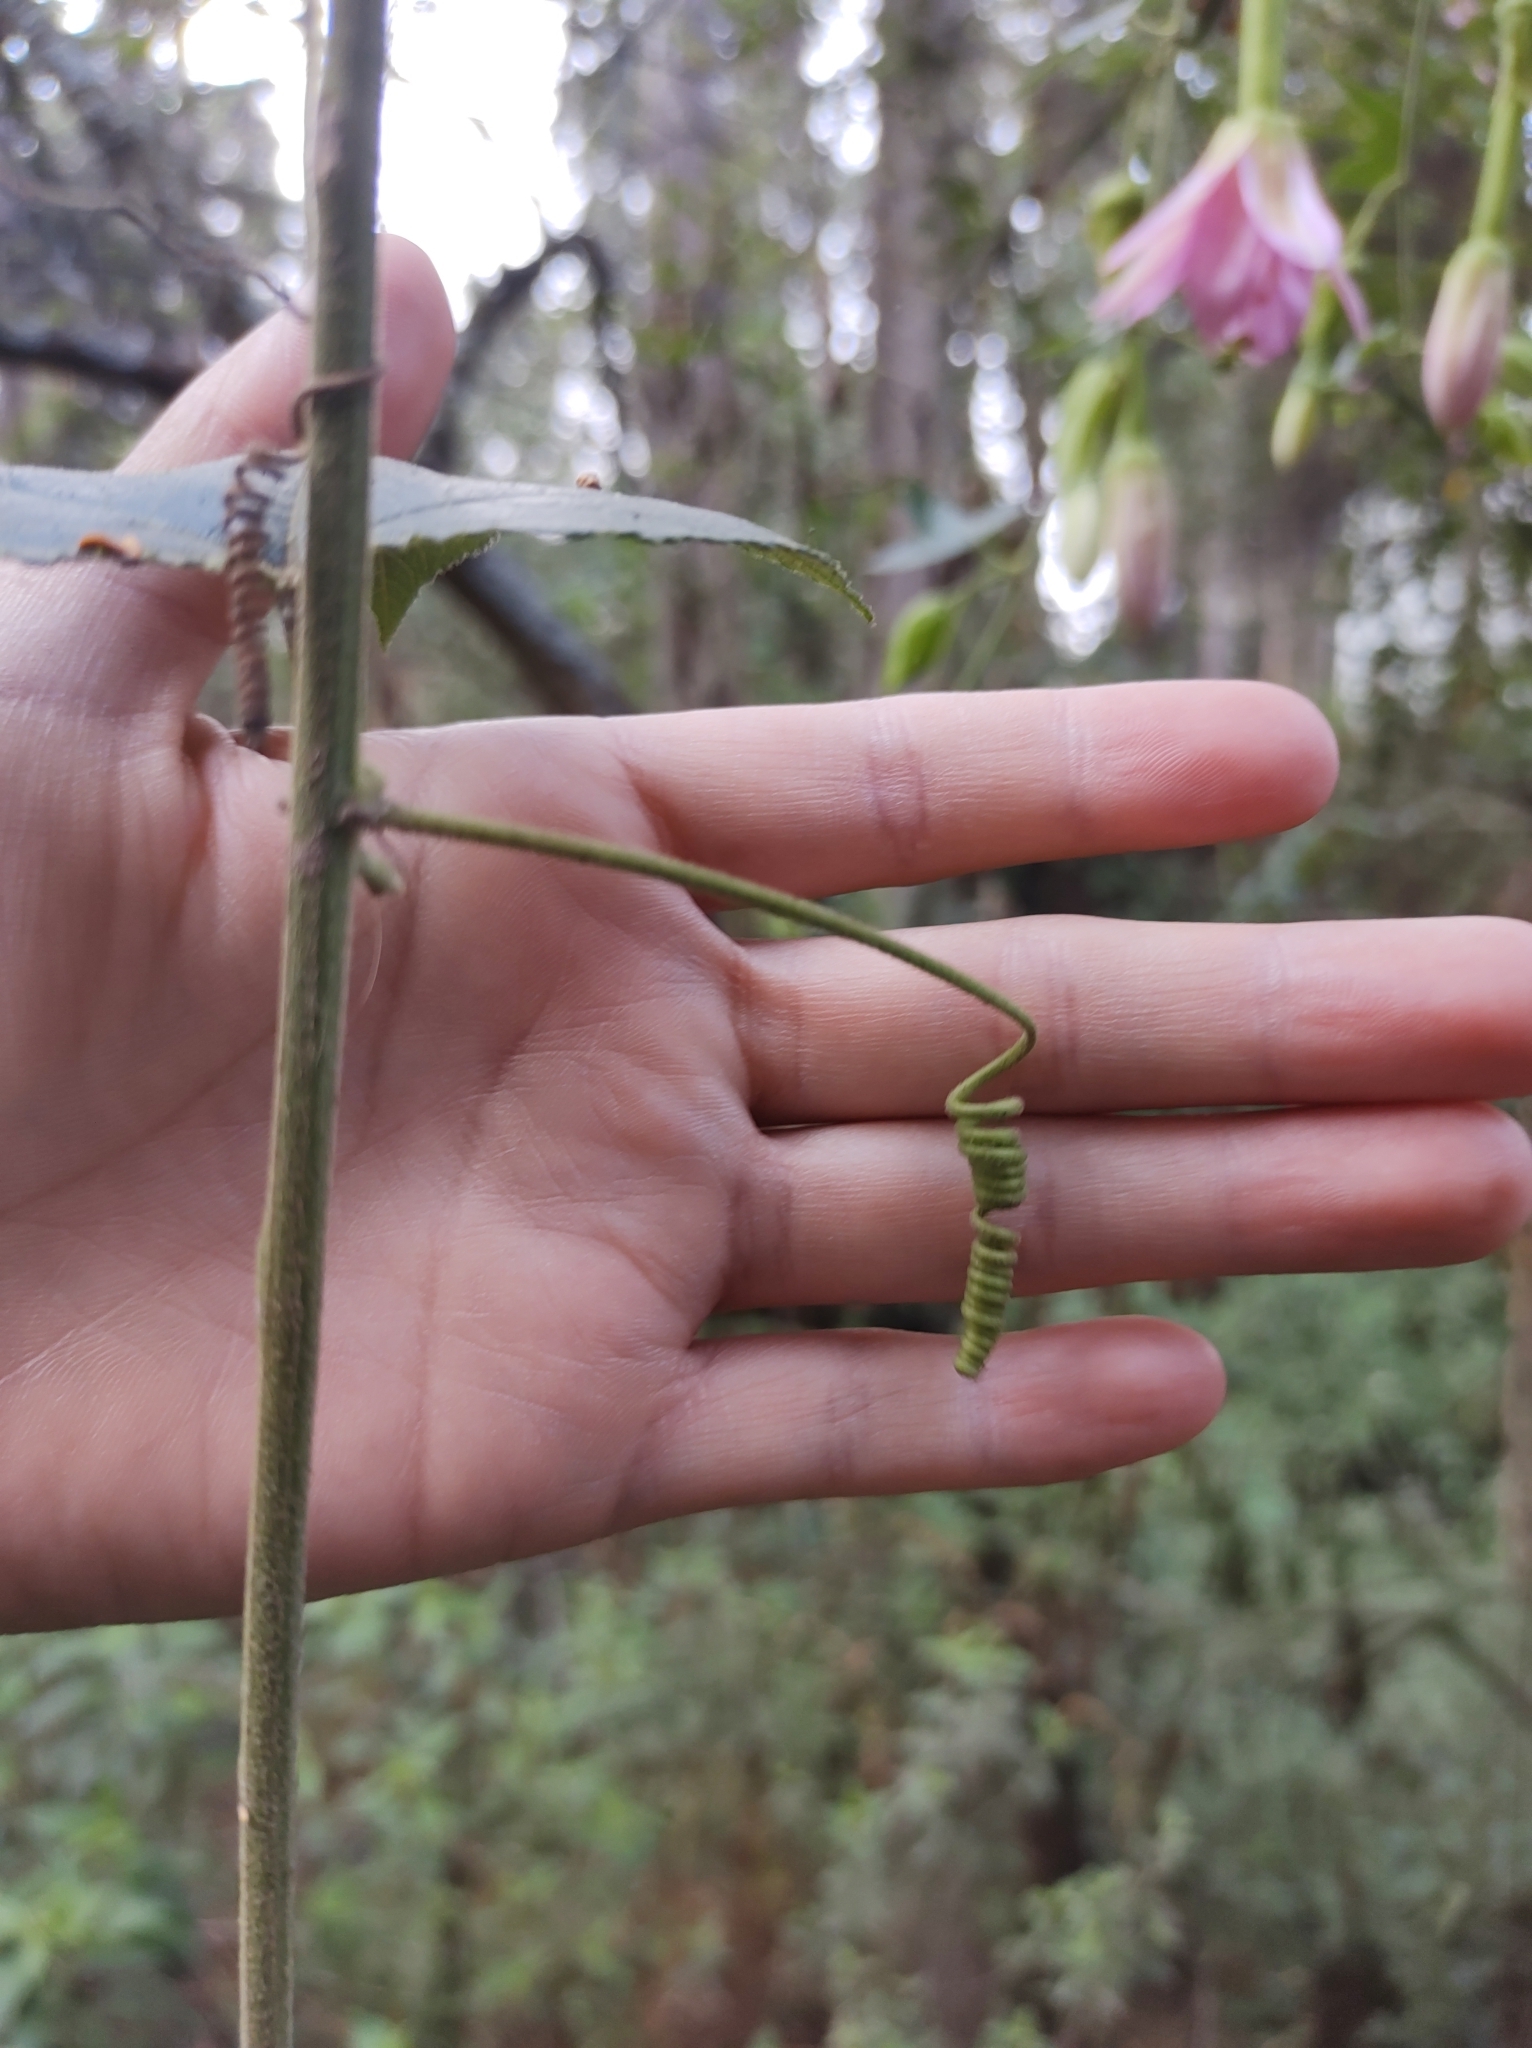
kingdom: Plantae
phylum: Tracheophyta
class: Magnoliopsida
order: Malpighiales
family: Passifloraceae
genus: Passiflora
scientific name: Passiflora tarminiana
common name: Banana poka
